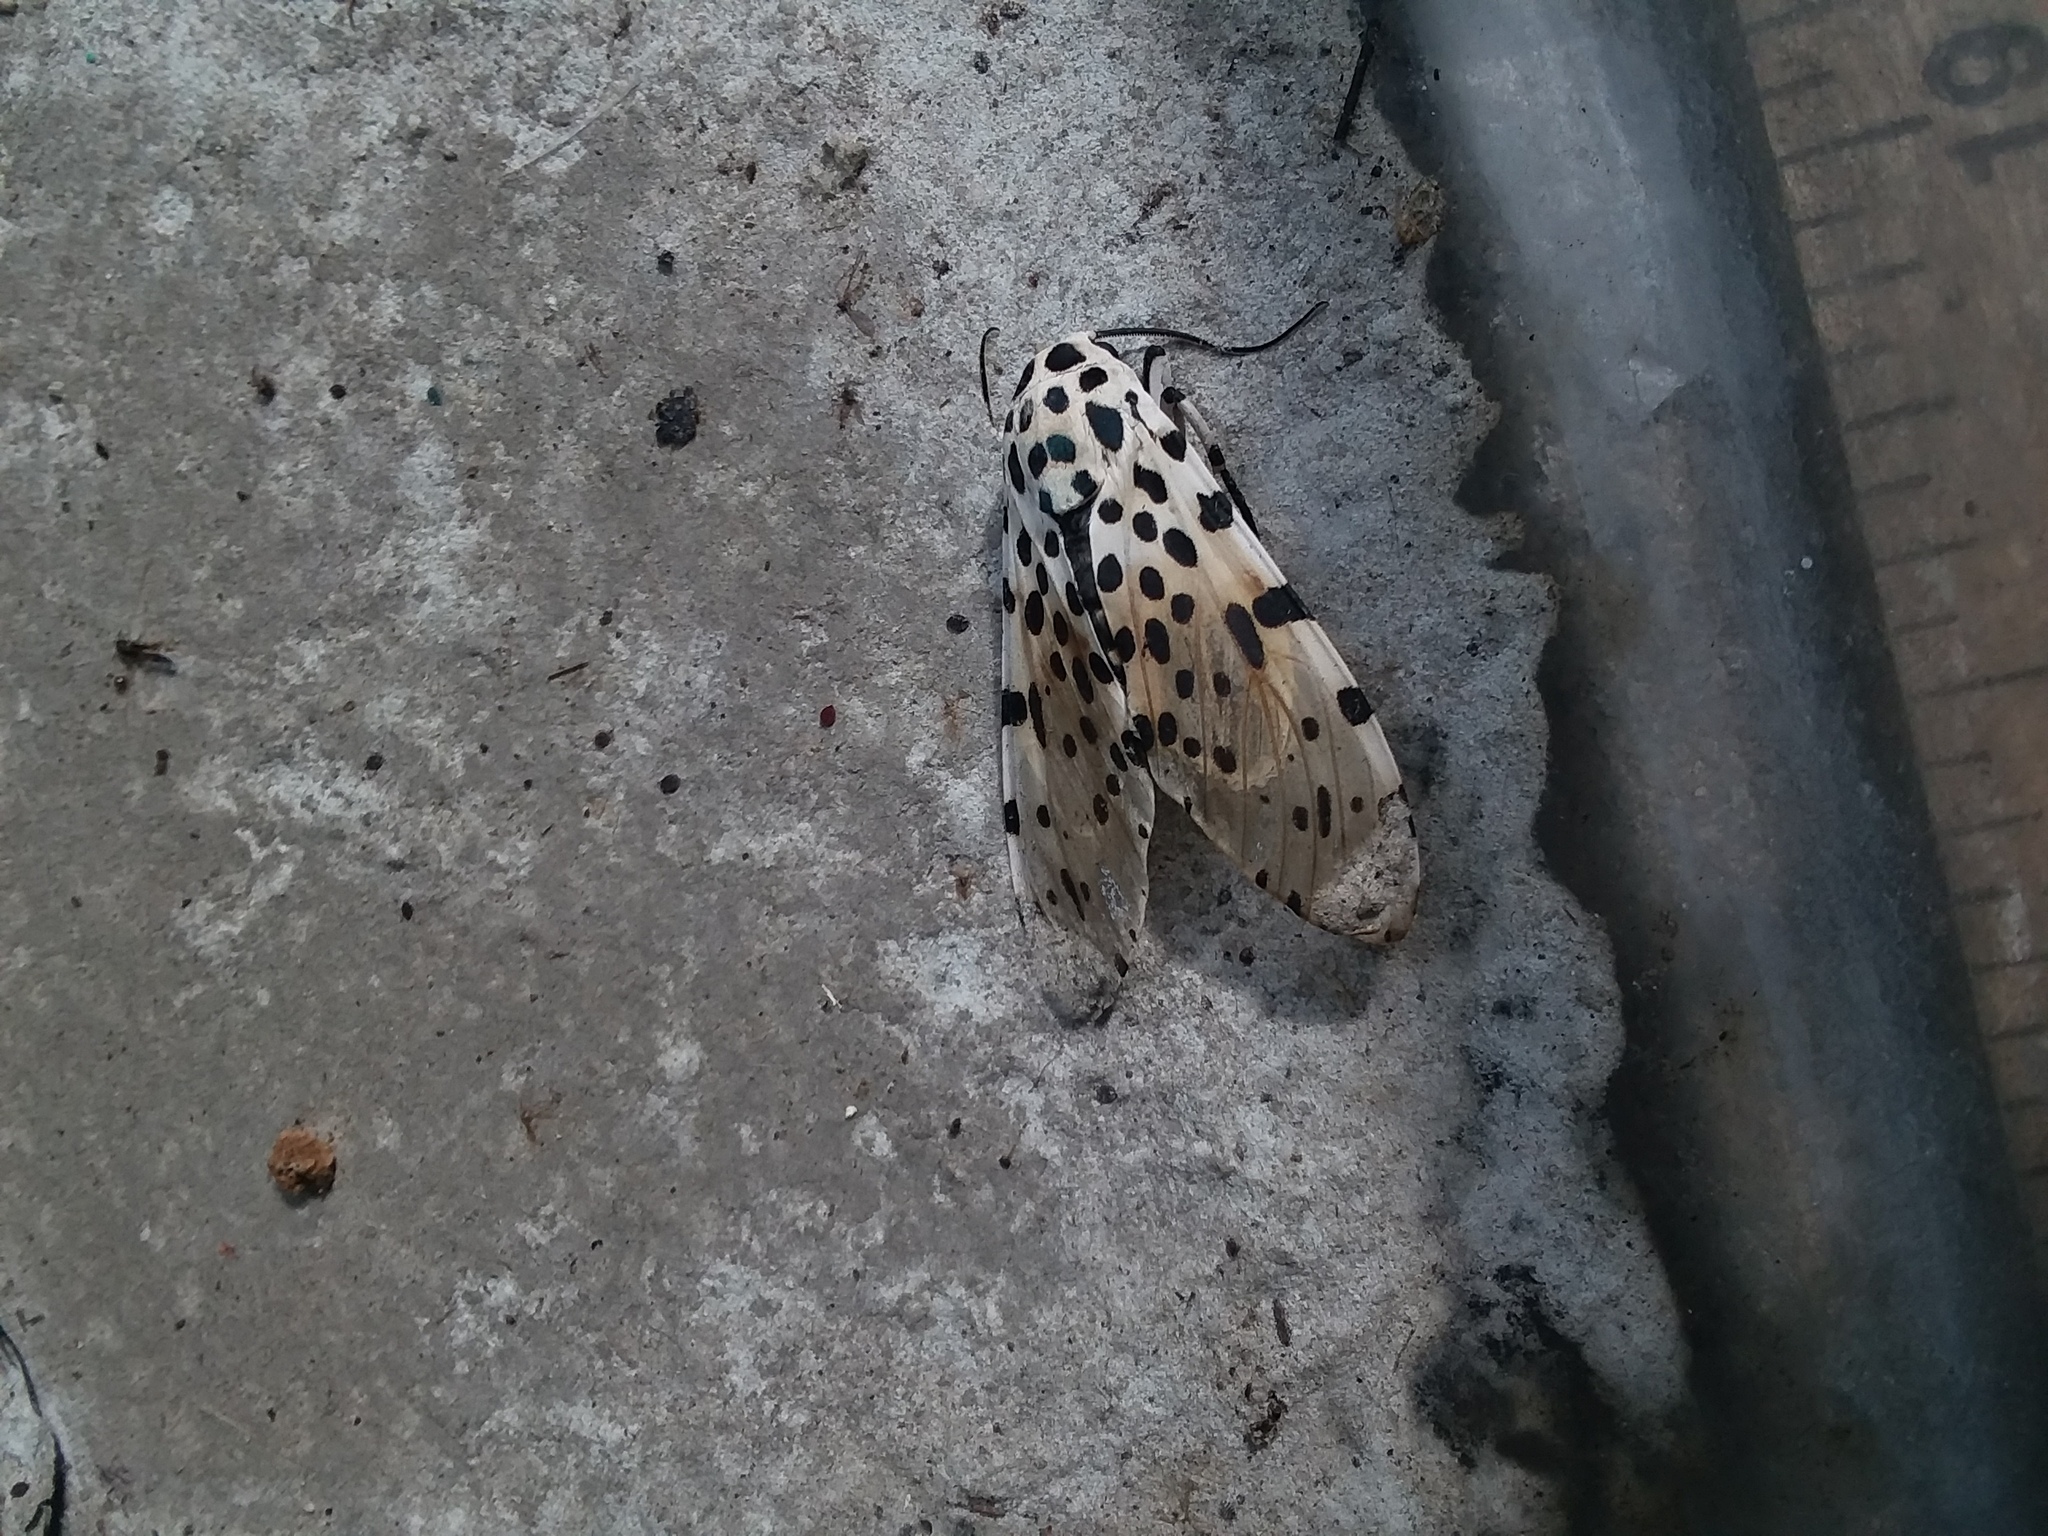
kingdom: Animalia
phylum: Arthropoda
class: Insecta
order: Lepidoptera
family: Erebidae
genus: Hypercompe
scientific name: Hypercompe scribonia
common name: Giant leopard moth
